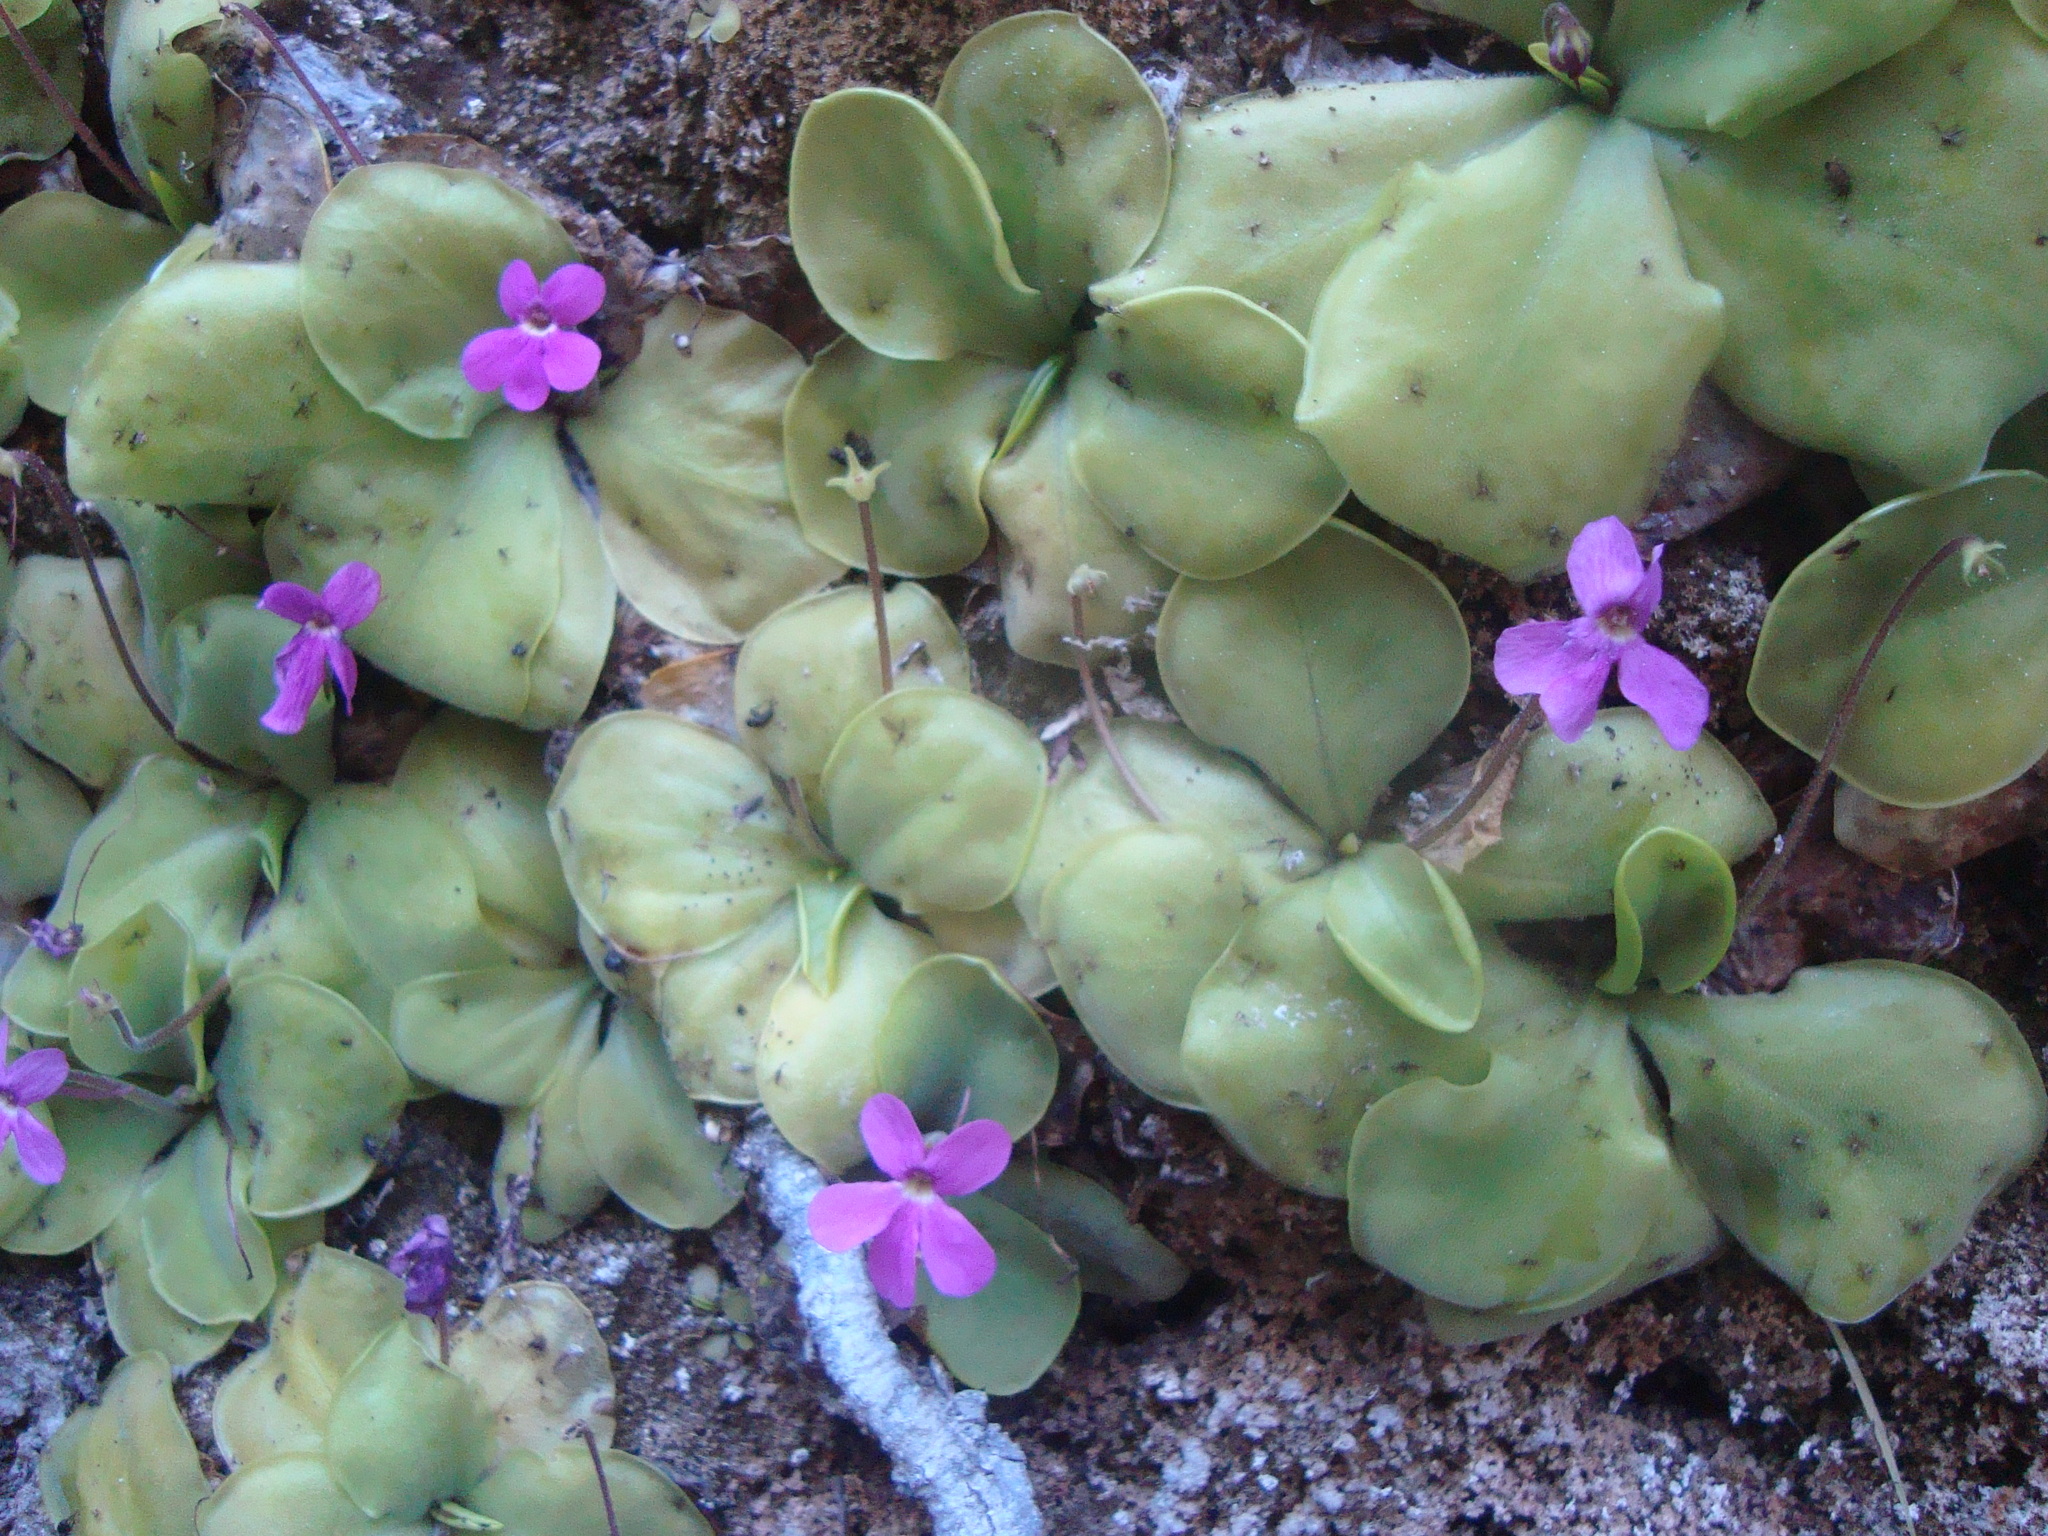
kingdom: Plantae
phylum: Tracheophyta
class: Magnoliopsida
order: Lamiales
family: Lentibulariaceae
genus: Pinguicula
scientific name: Pinguicula zamudioana
